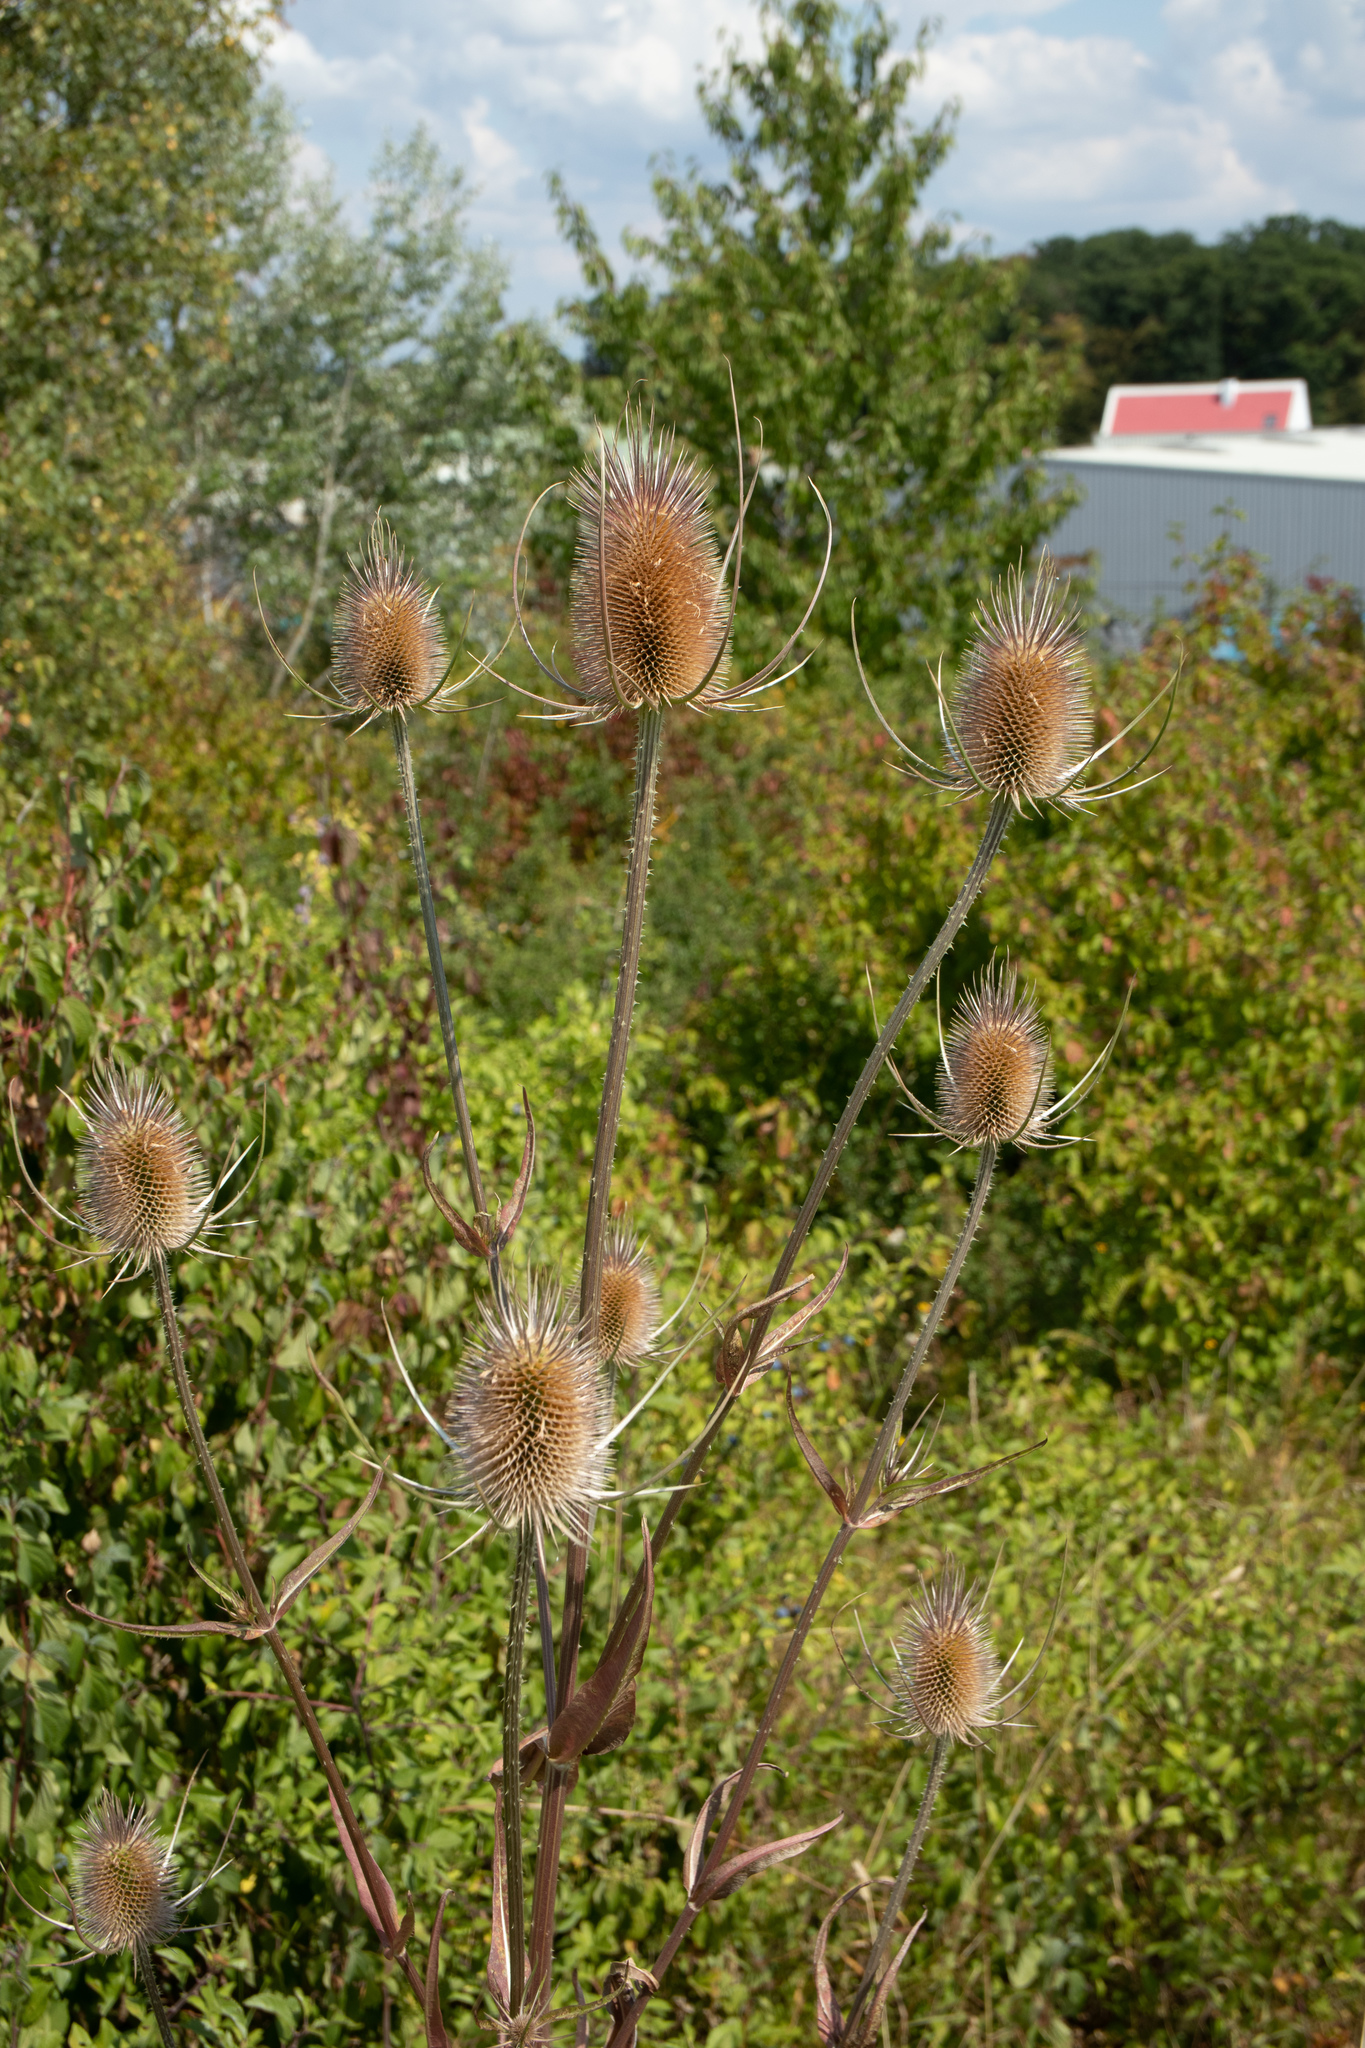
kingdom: Plantae
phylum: Tracheophyta
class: Magnoliopsida
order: Dipsacales
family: Caprifoliaceae
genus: Dipsacus
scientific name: Dipsacus fullonum
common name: Teasel
